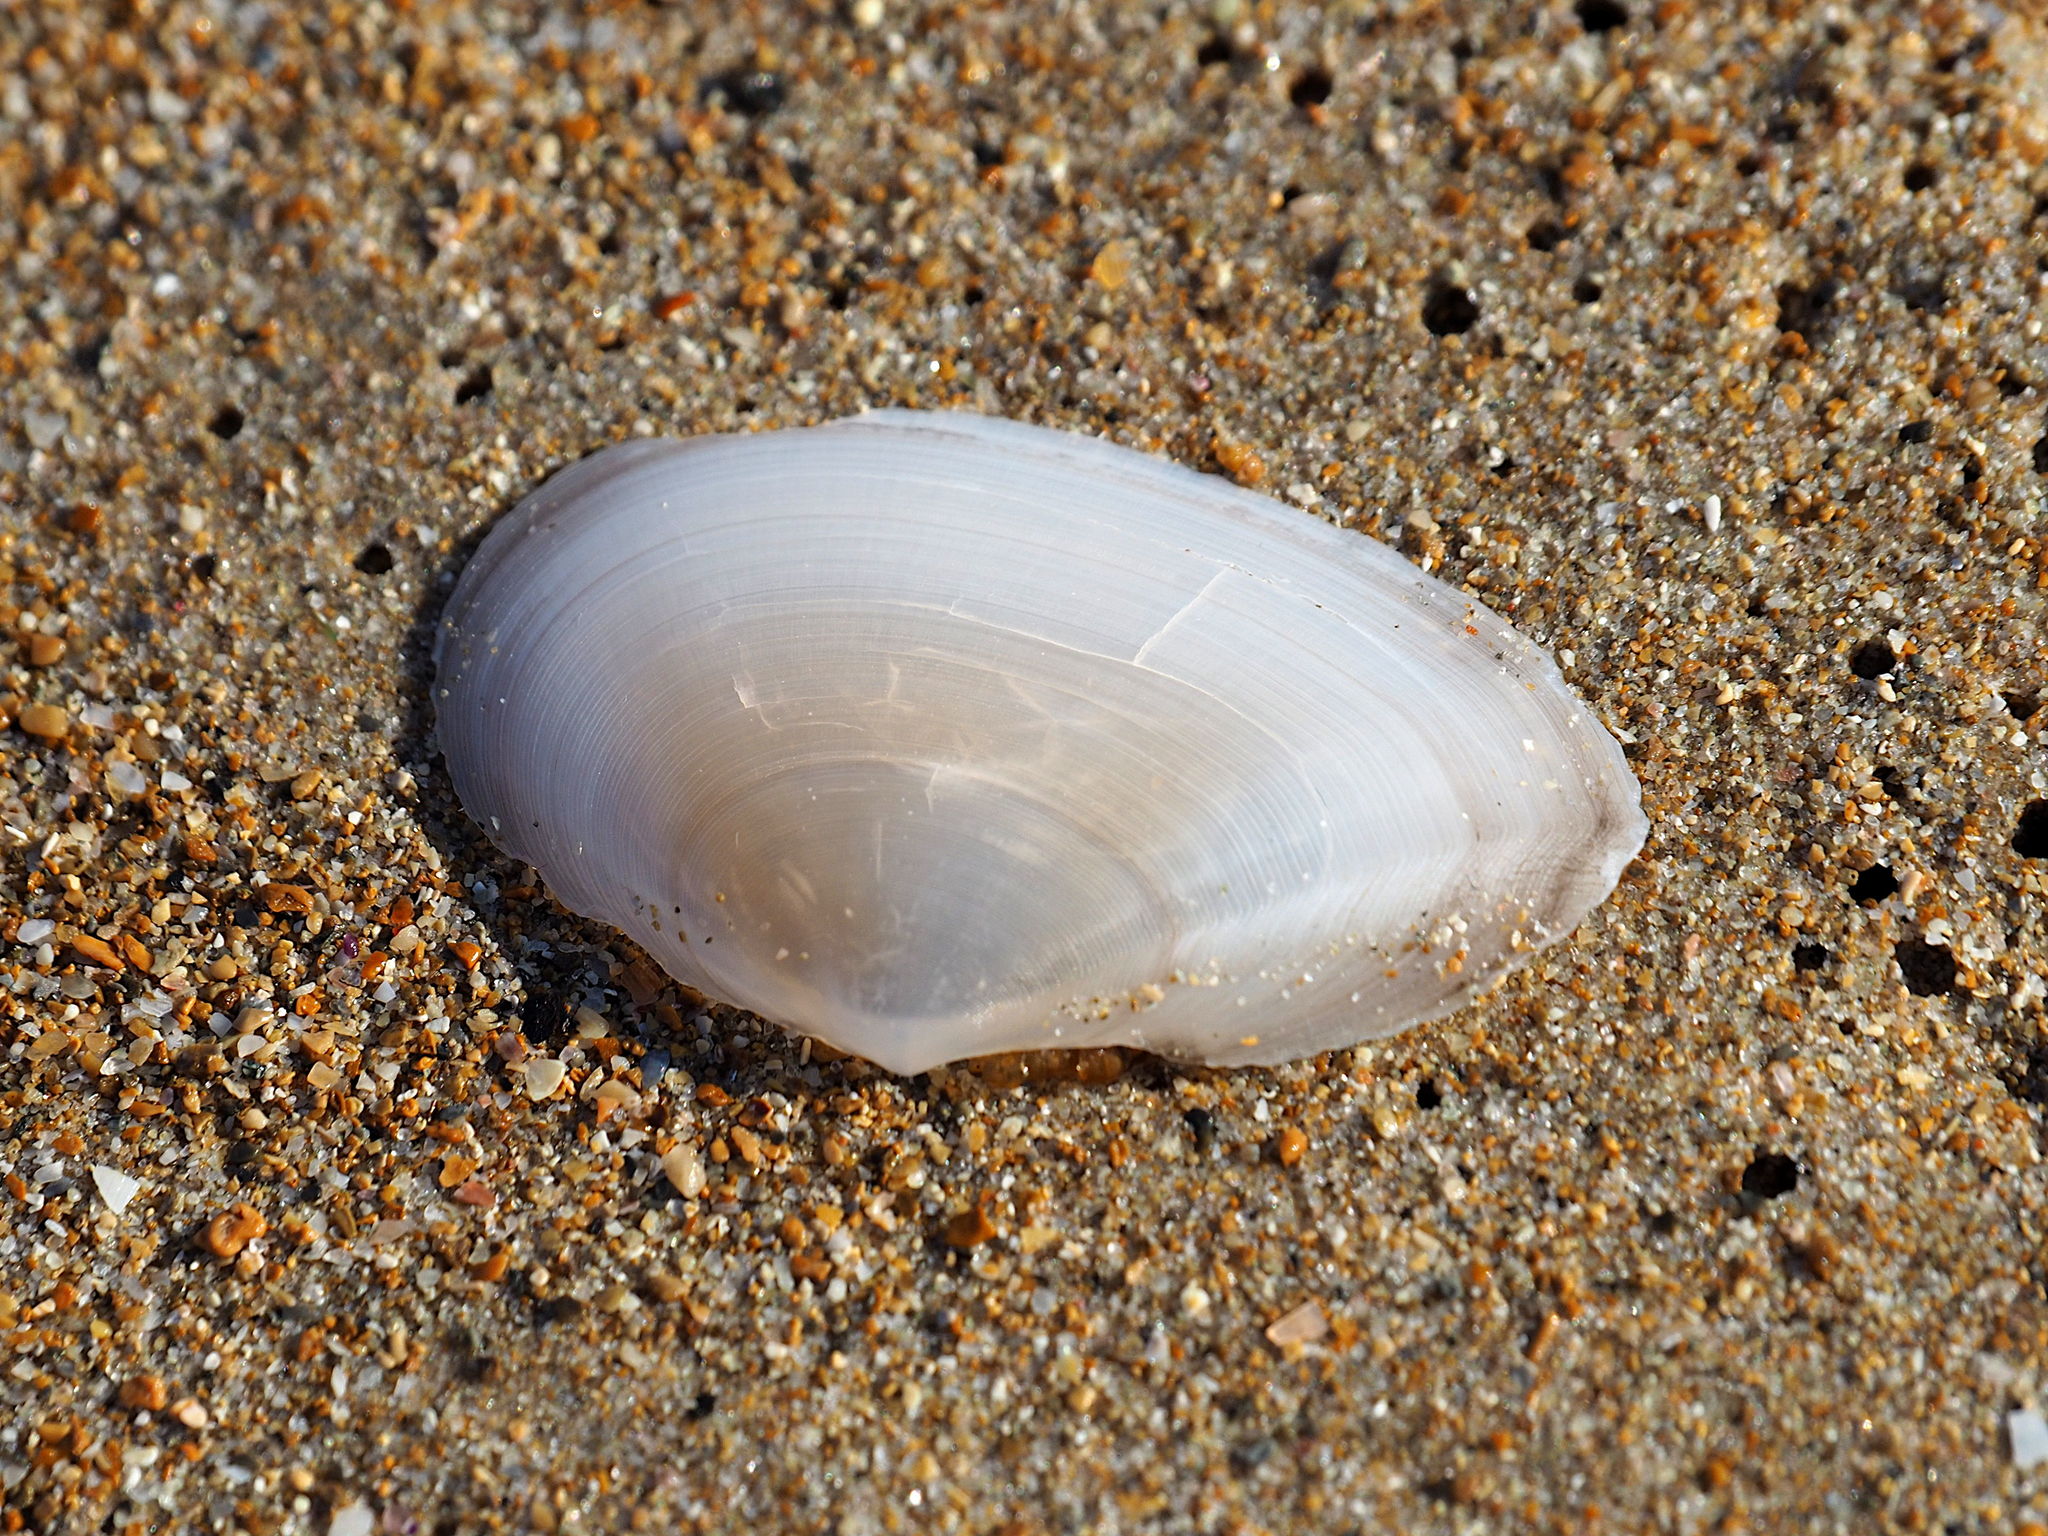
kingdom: Animalia
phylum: Mollusca
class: Bivalvia
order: Cardiida
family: Tellinidae
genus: Peronaea
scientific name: Peronaea planata
